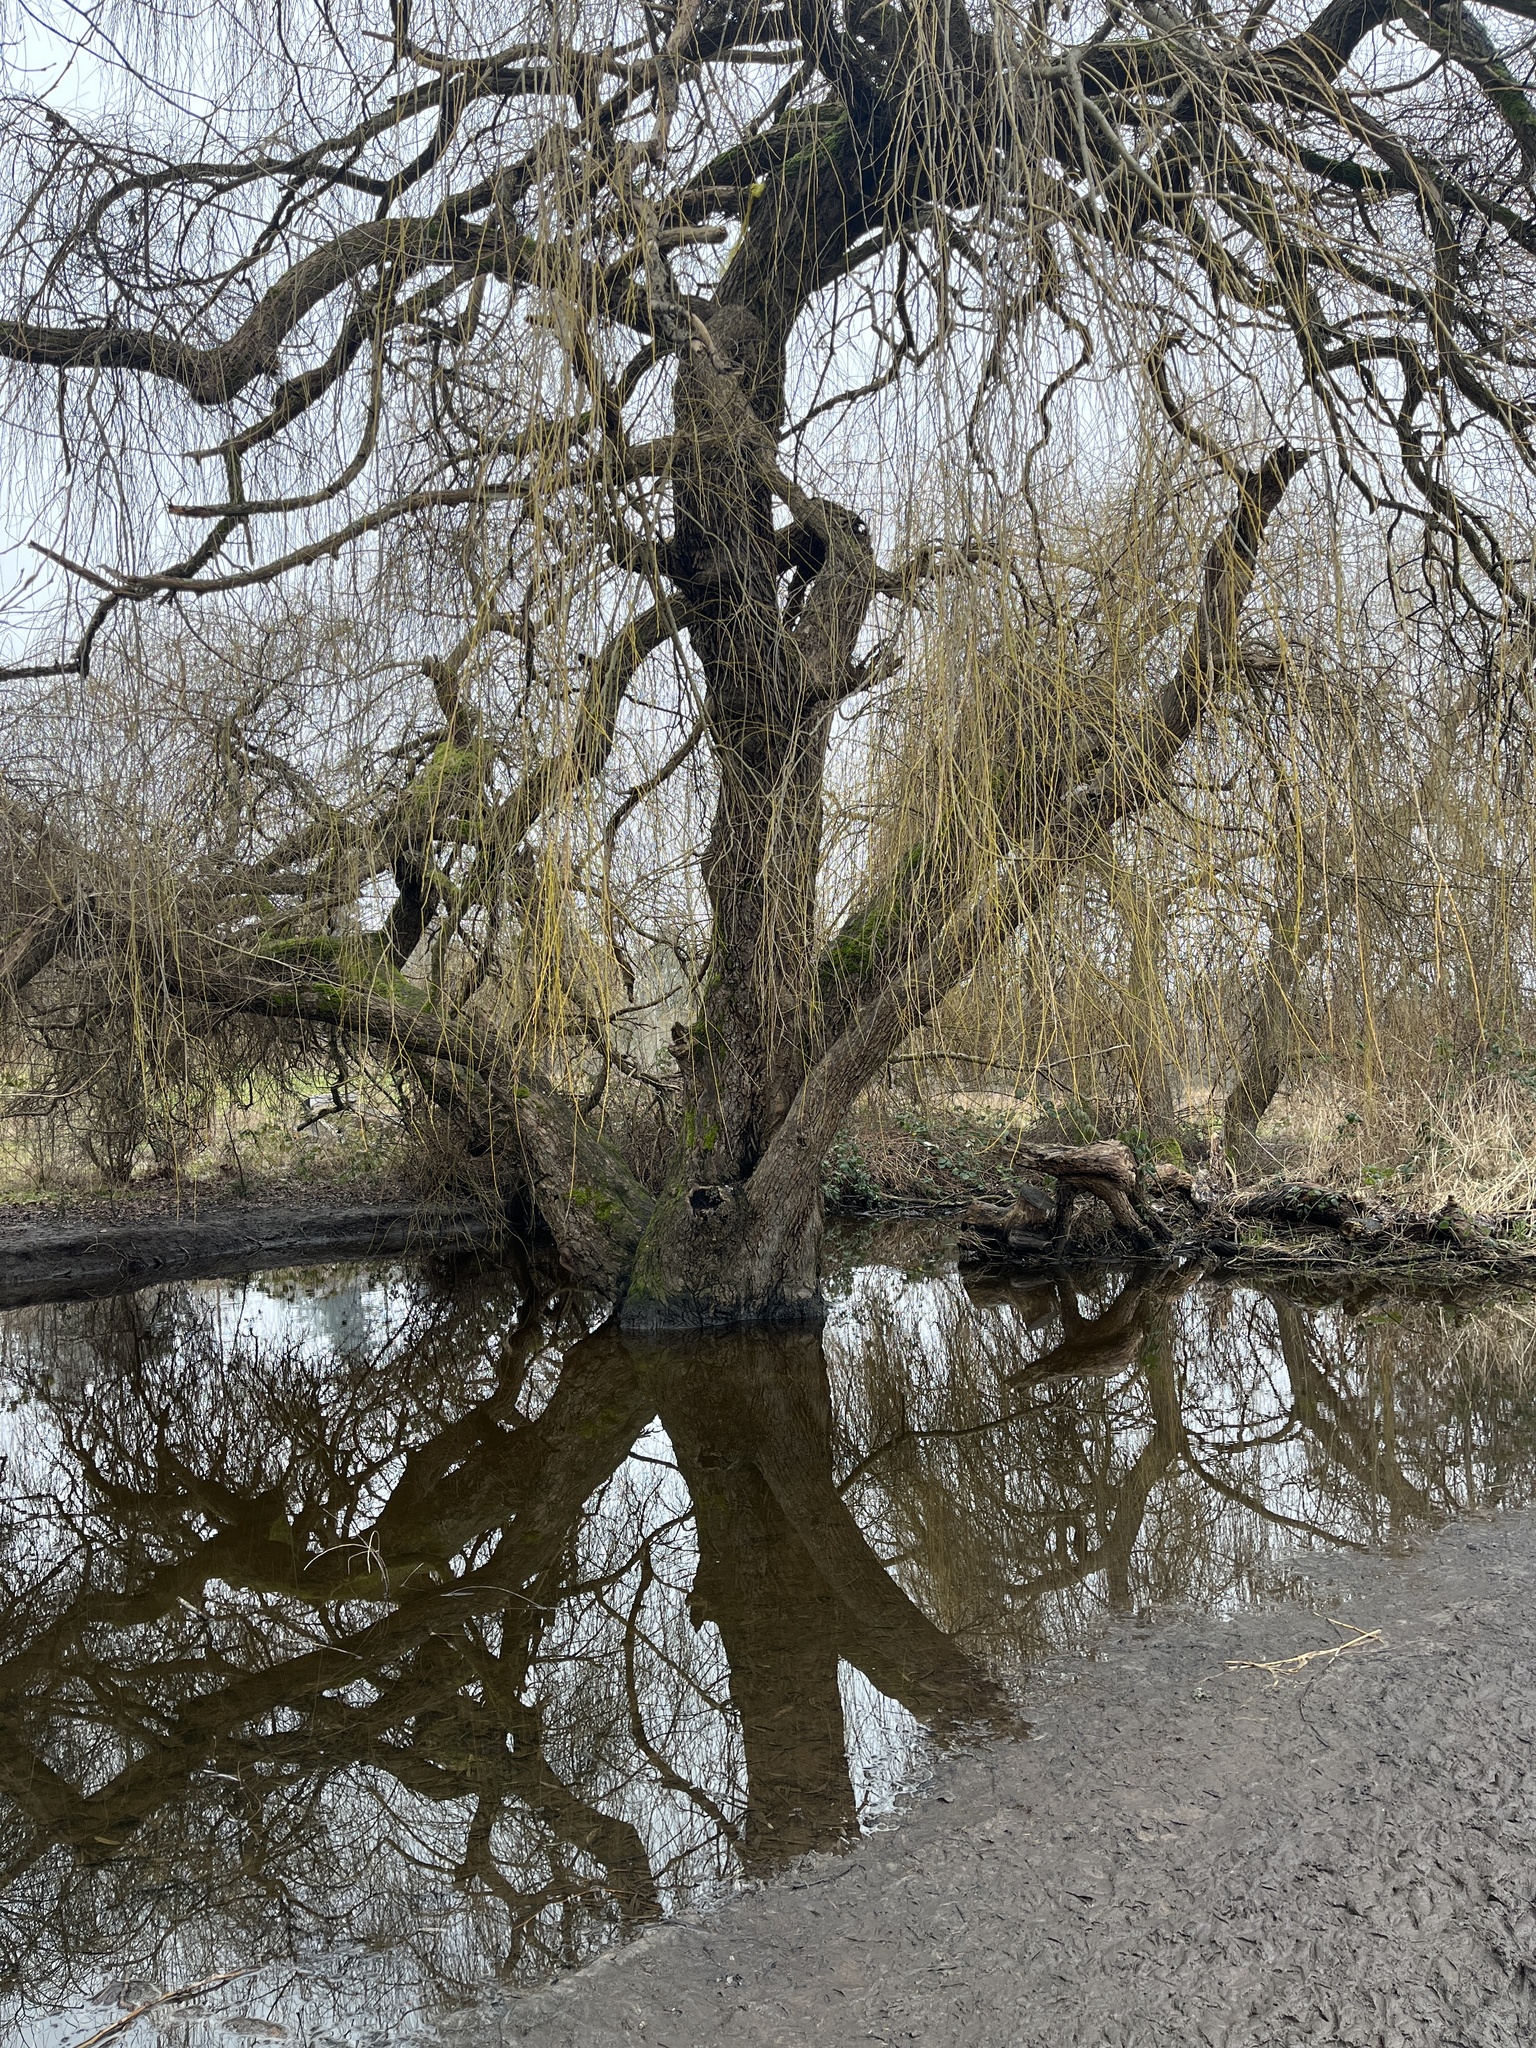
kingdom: Plantae
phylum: Tracheophyta
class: Magnoliopsida
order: Malpighiales
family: Salicaceae
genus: Salix
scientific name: Salix pendulina
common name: Wisconsin weeping willow
